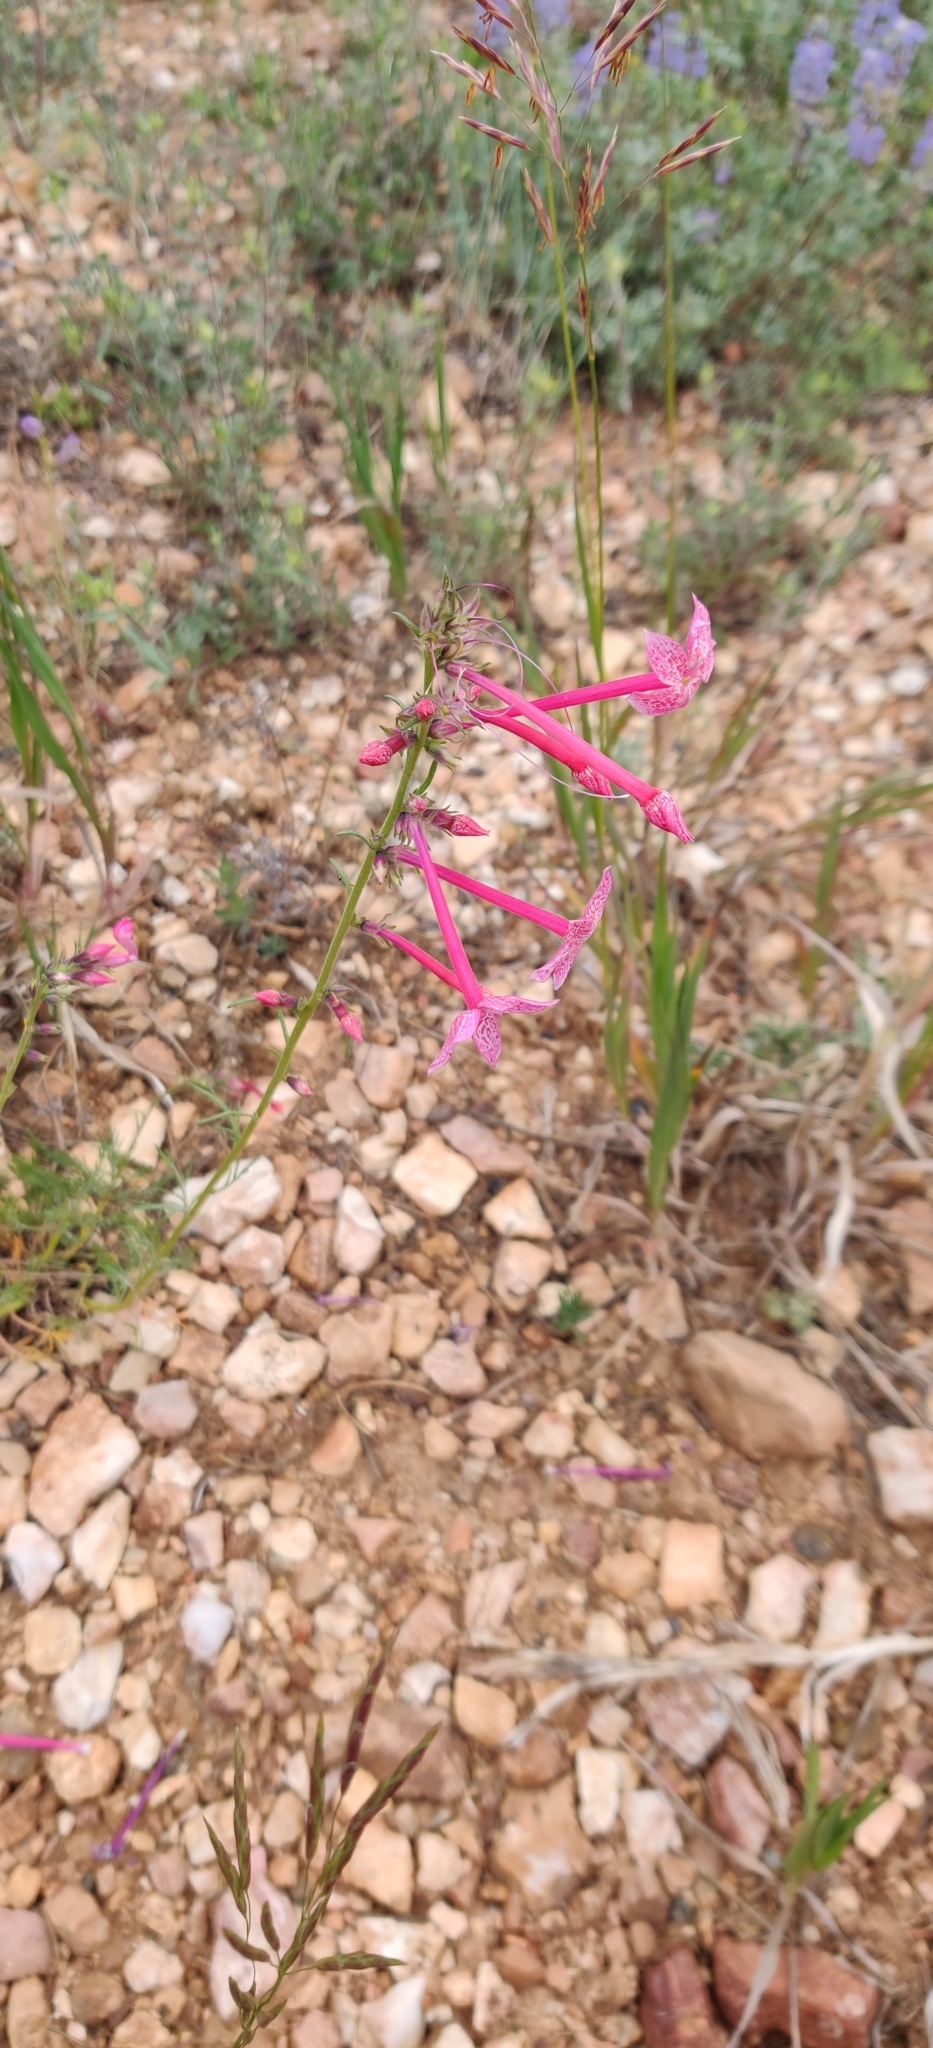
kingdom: Plantae
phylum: Tracheophyta
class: Magnoliopsida
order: Ericales
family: Polemoniaceae
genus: Ipomopsis
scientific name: Ipomopsis tenuituba
